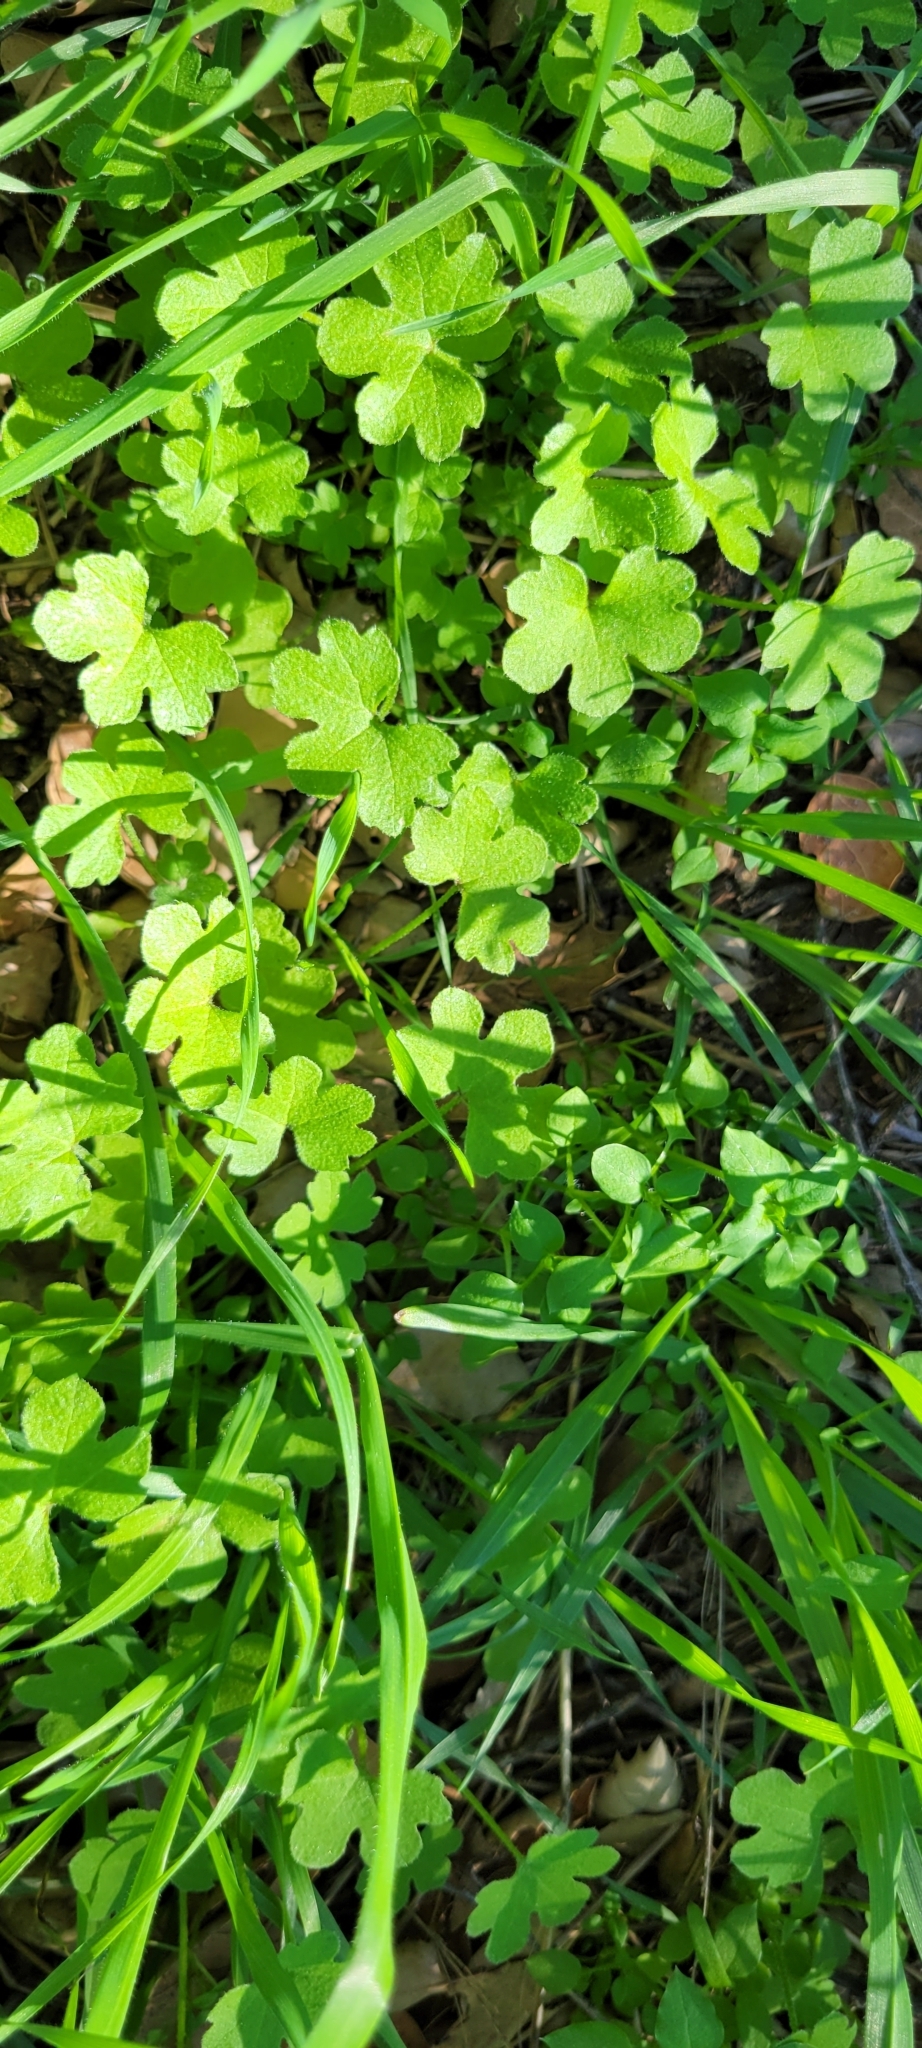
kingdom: Plantae
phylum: Tracheophyta
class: Magnoliopsida
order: Apiales
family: Apiaceae
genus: Bowlesia
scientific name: Bowlesia incana
